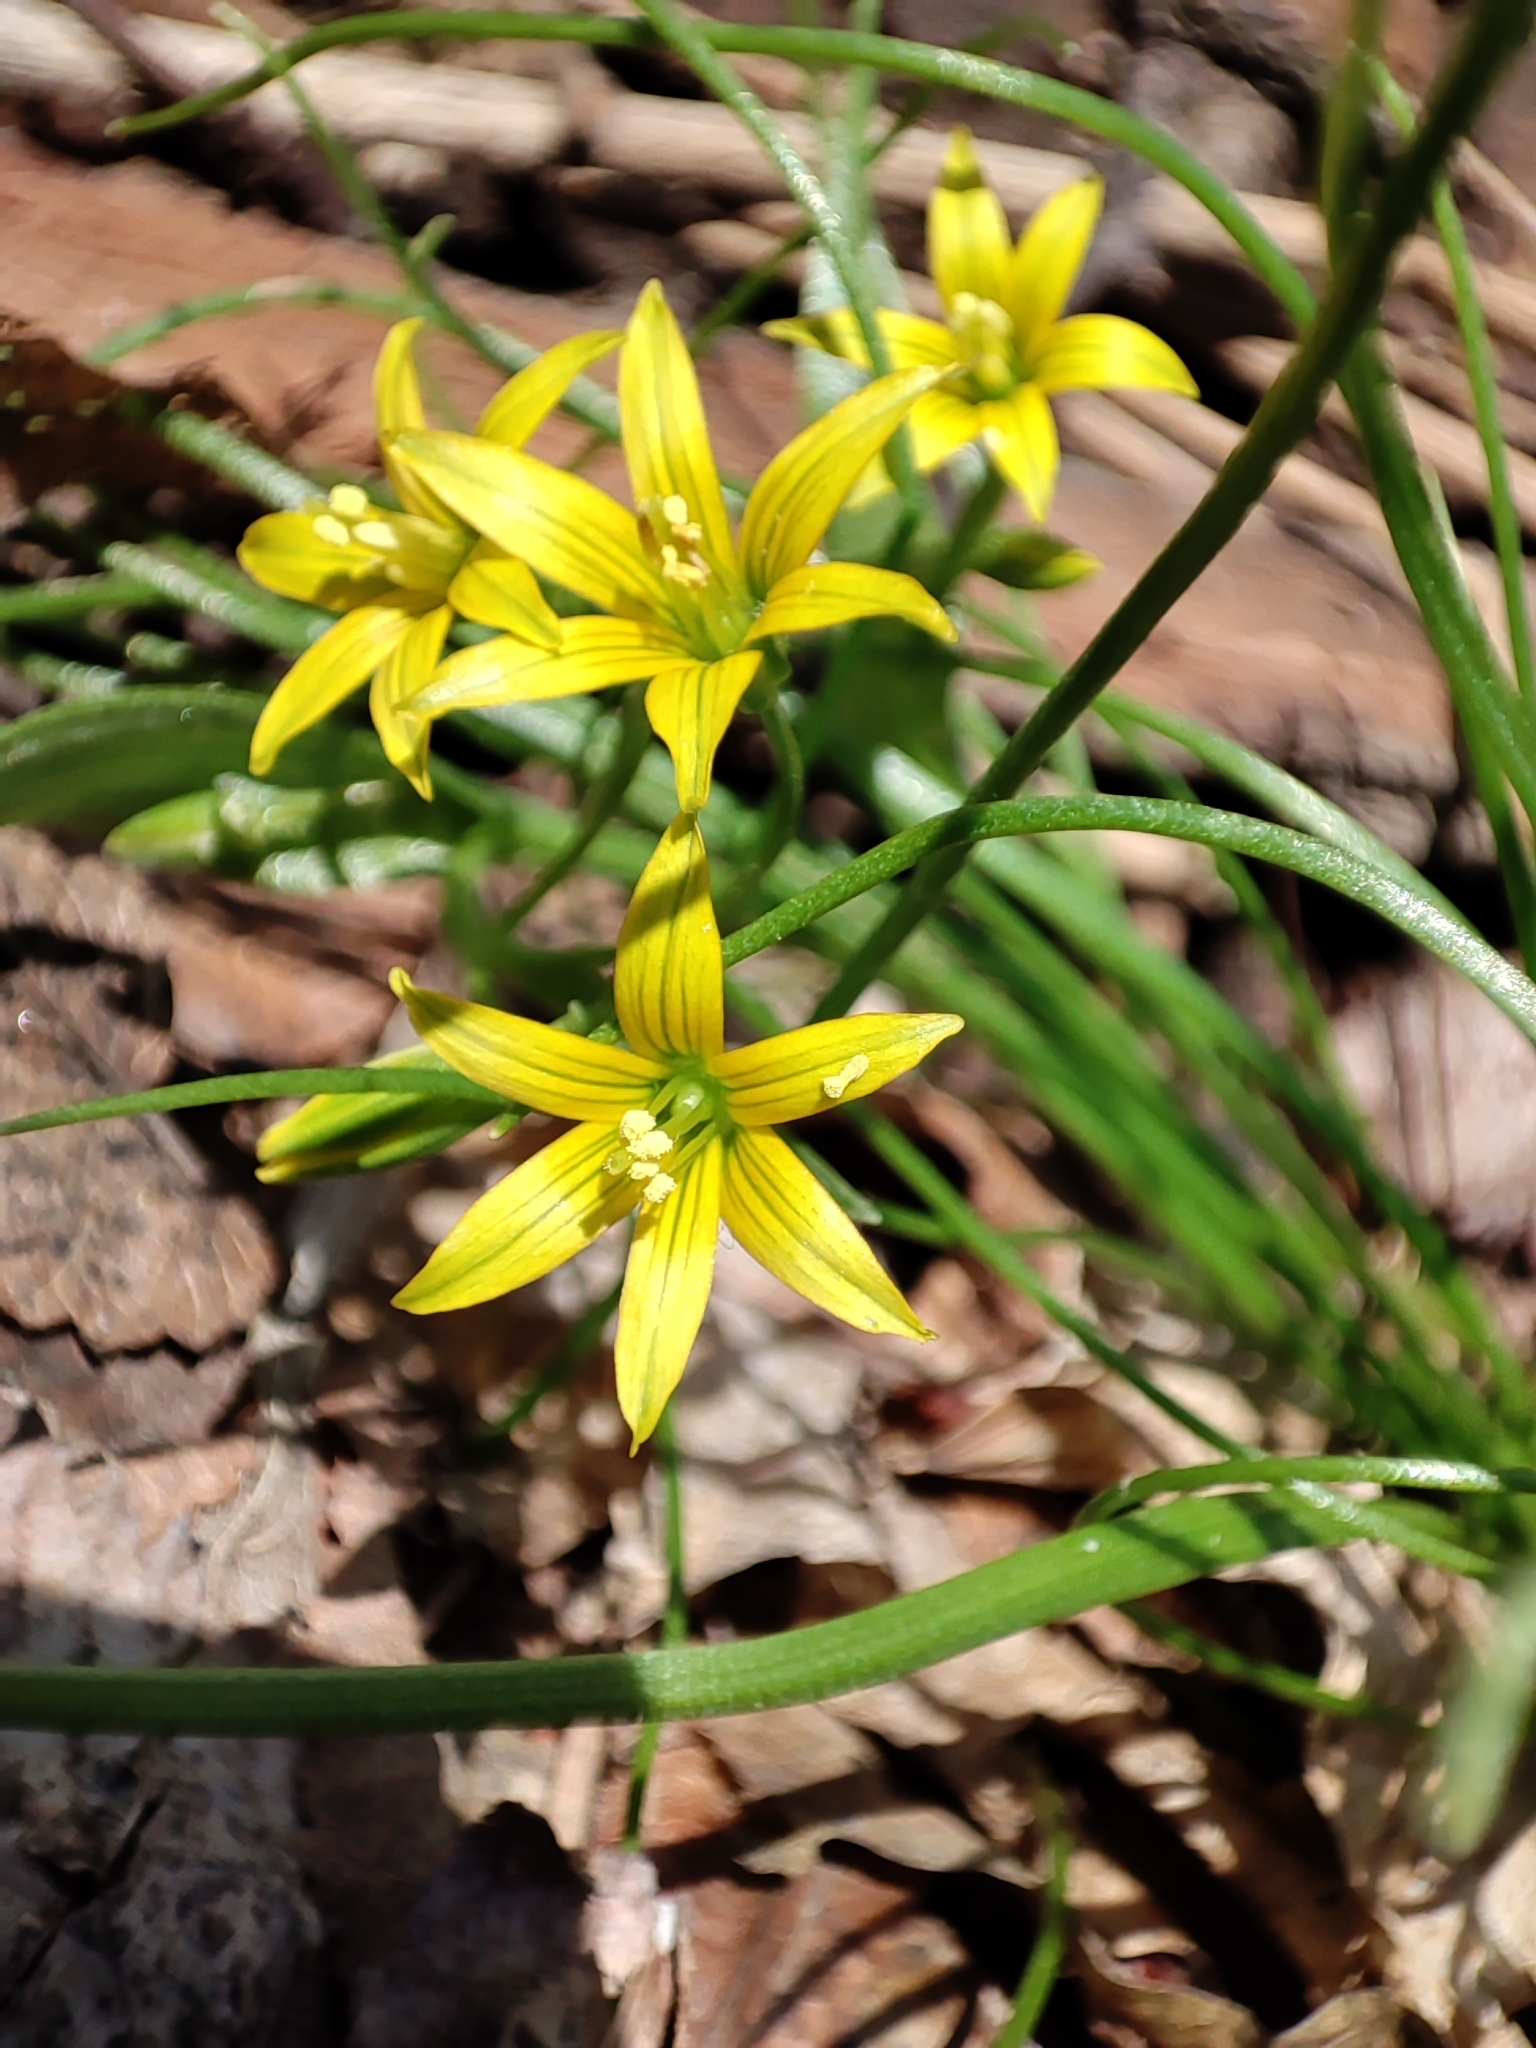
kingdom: Plantae
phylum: Tracheophyta
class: Liliopsida
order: Liliales
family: Liliaceae
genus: Gagea
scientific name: Gagea minima
